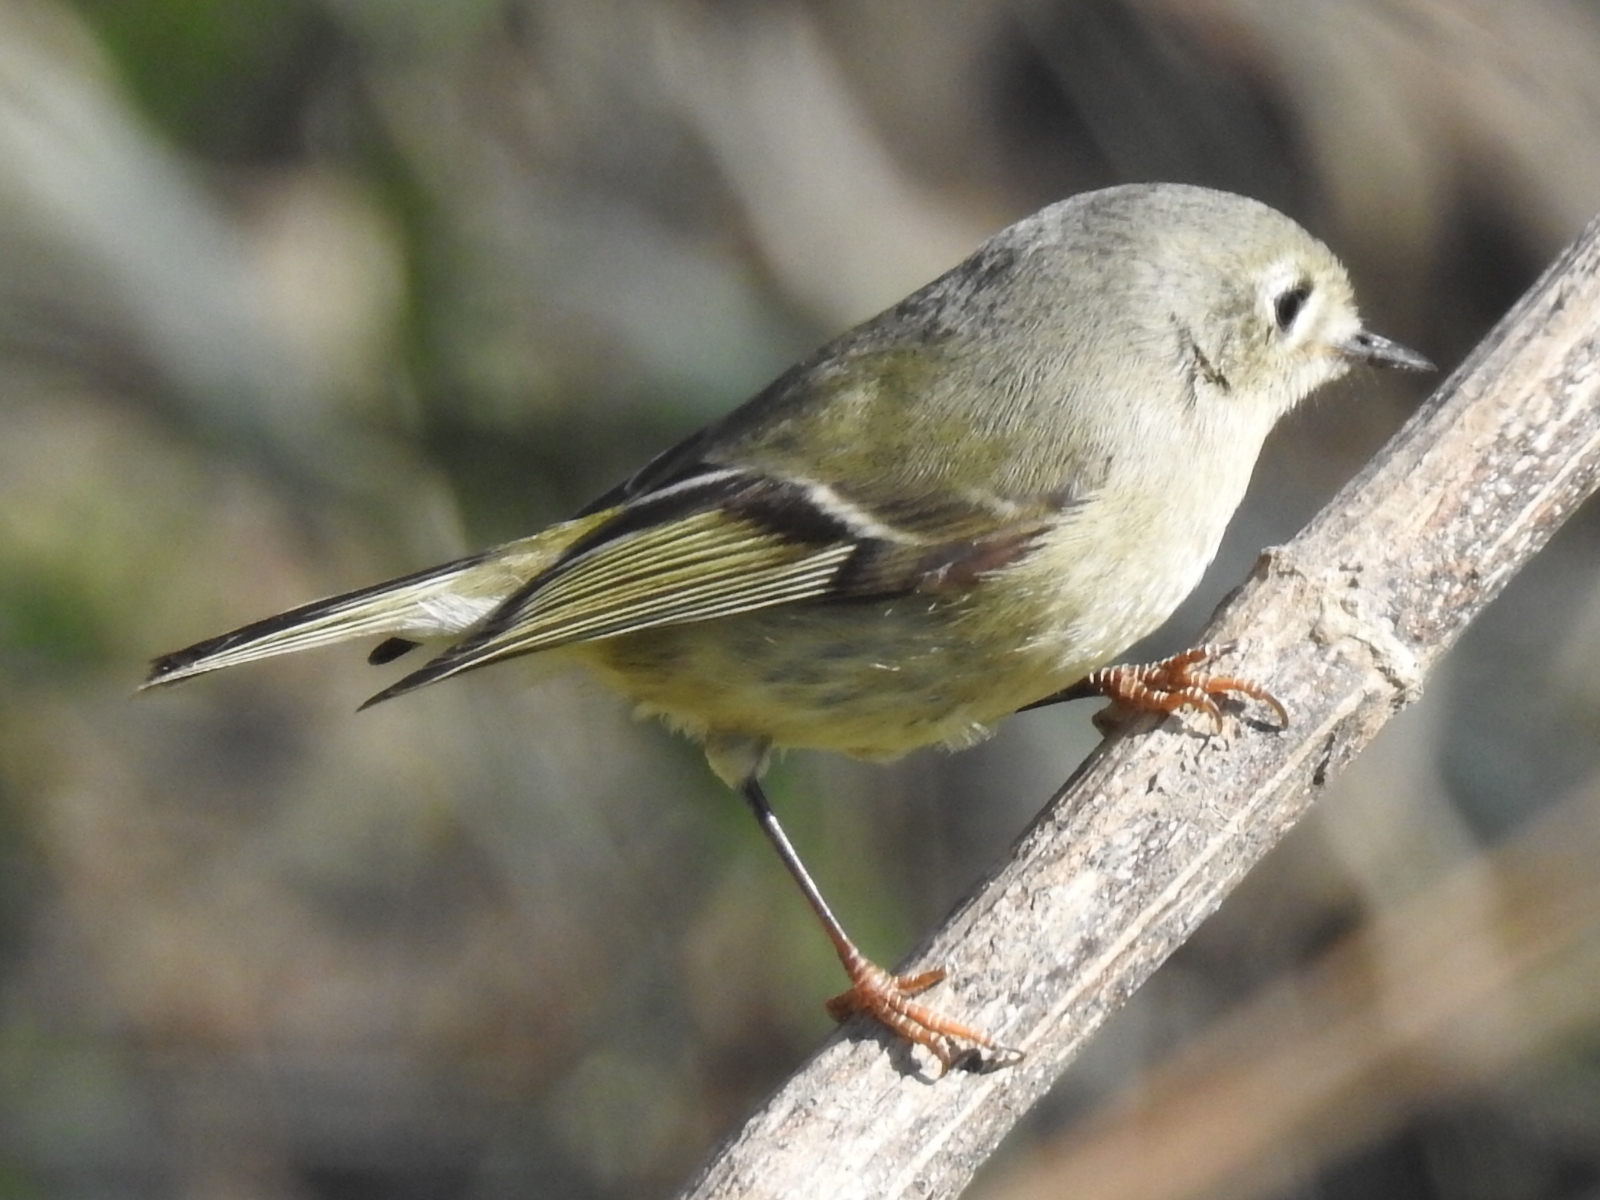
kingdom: Animalia
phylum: Chordata
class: Aves
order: Passeriformes
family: Regulidae
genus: Regulus
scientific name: Regulus calendula
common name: Ruby-crowned kinglet
